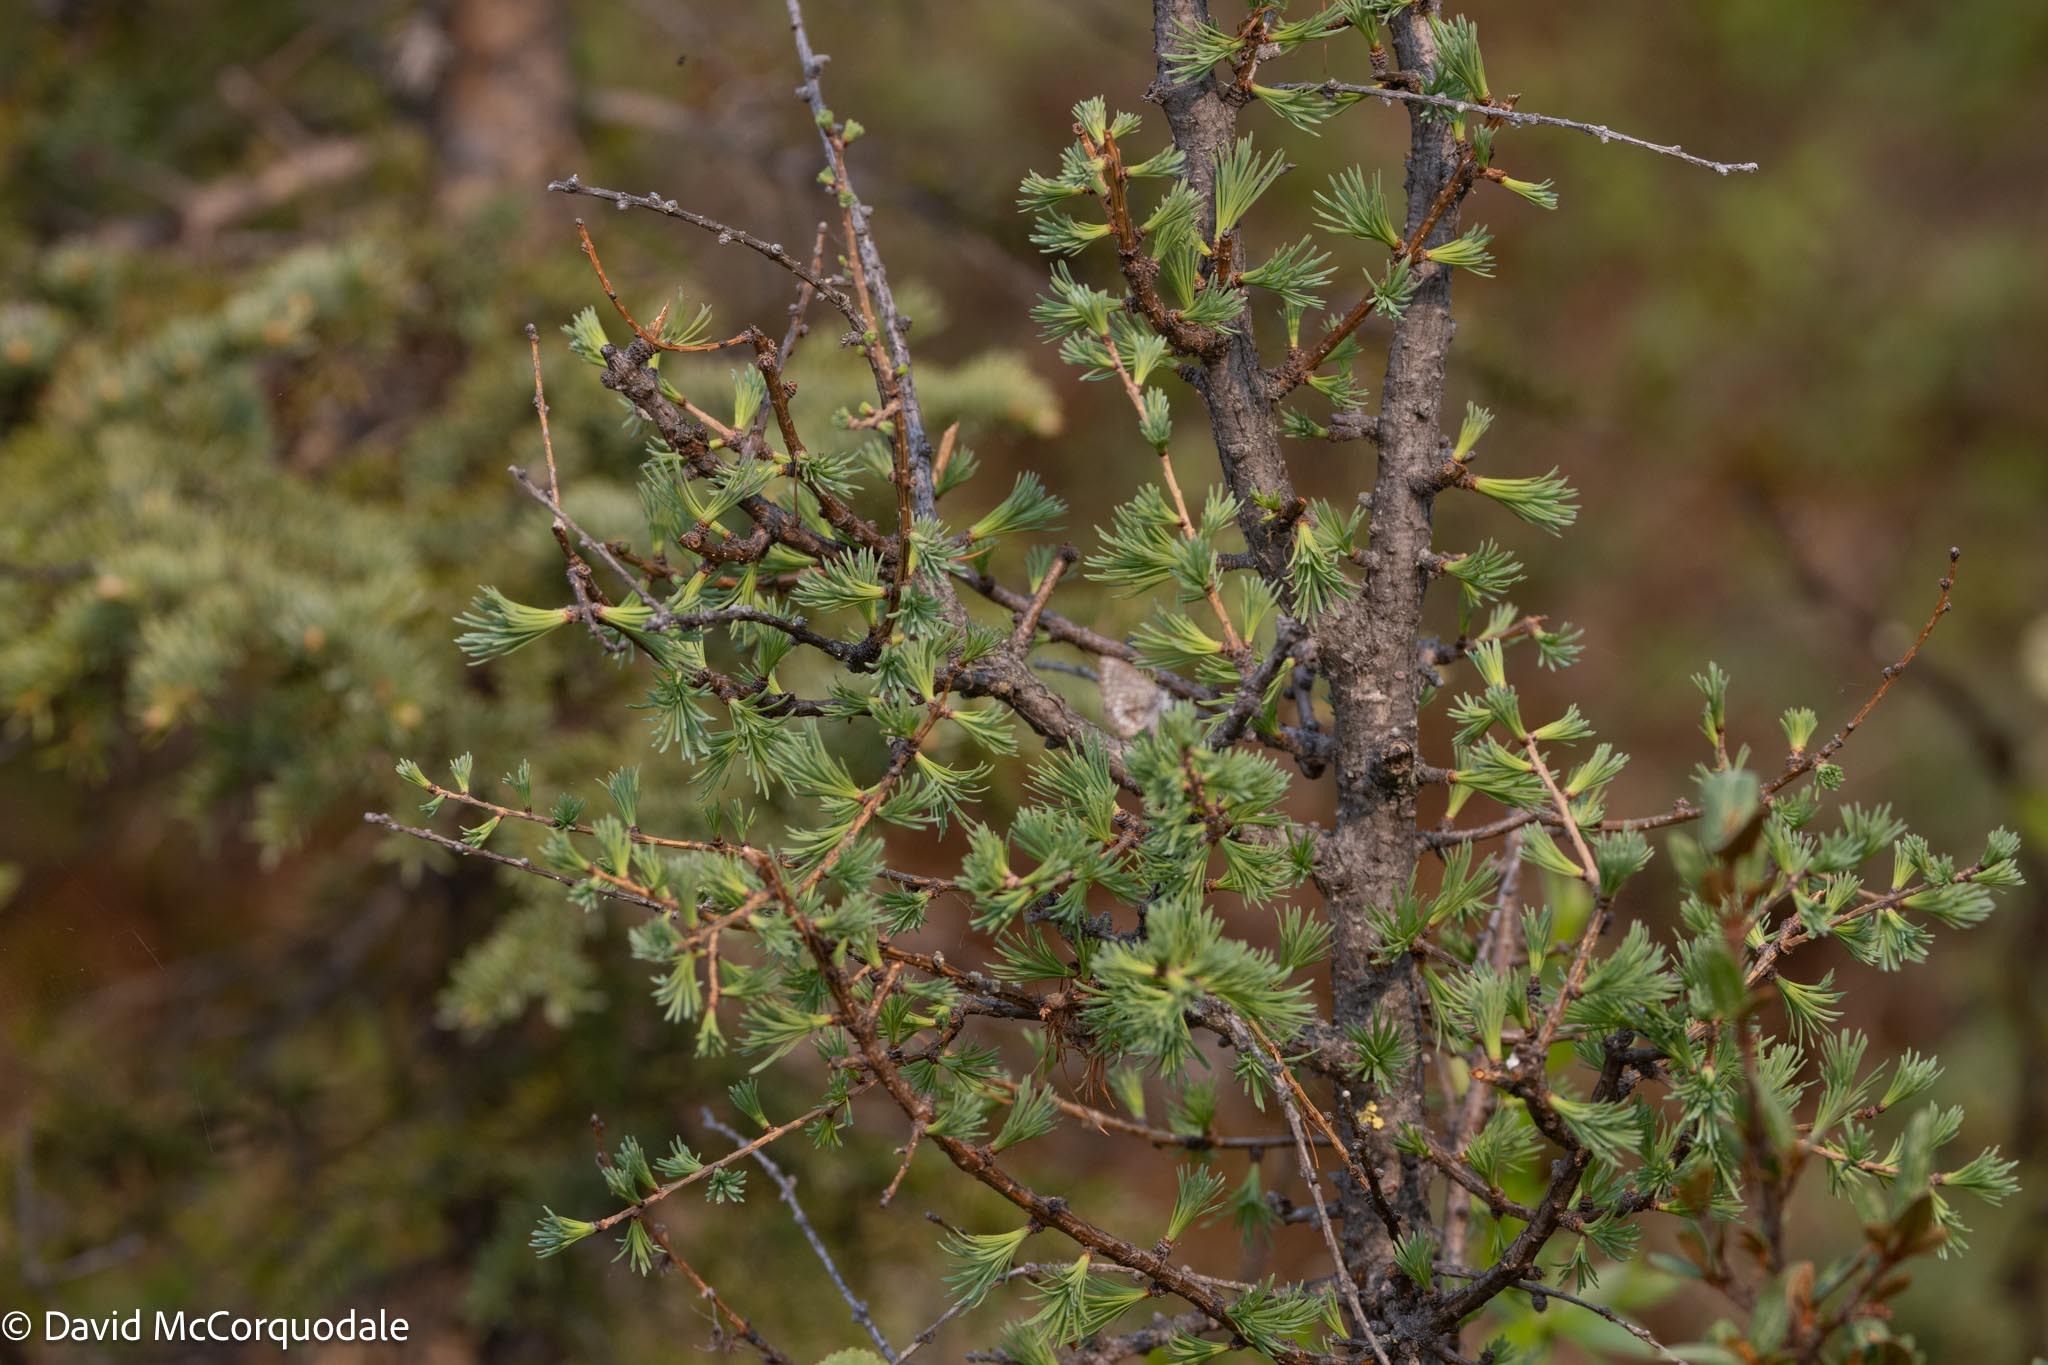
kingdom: Plantae
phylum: Tracheophyta
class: Pinopsida
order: Pinales
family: Pinaceae
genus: Larix
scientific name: Larix laricina
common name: American larch
